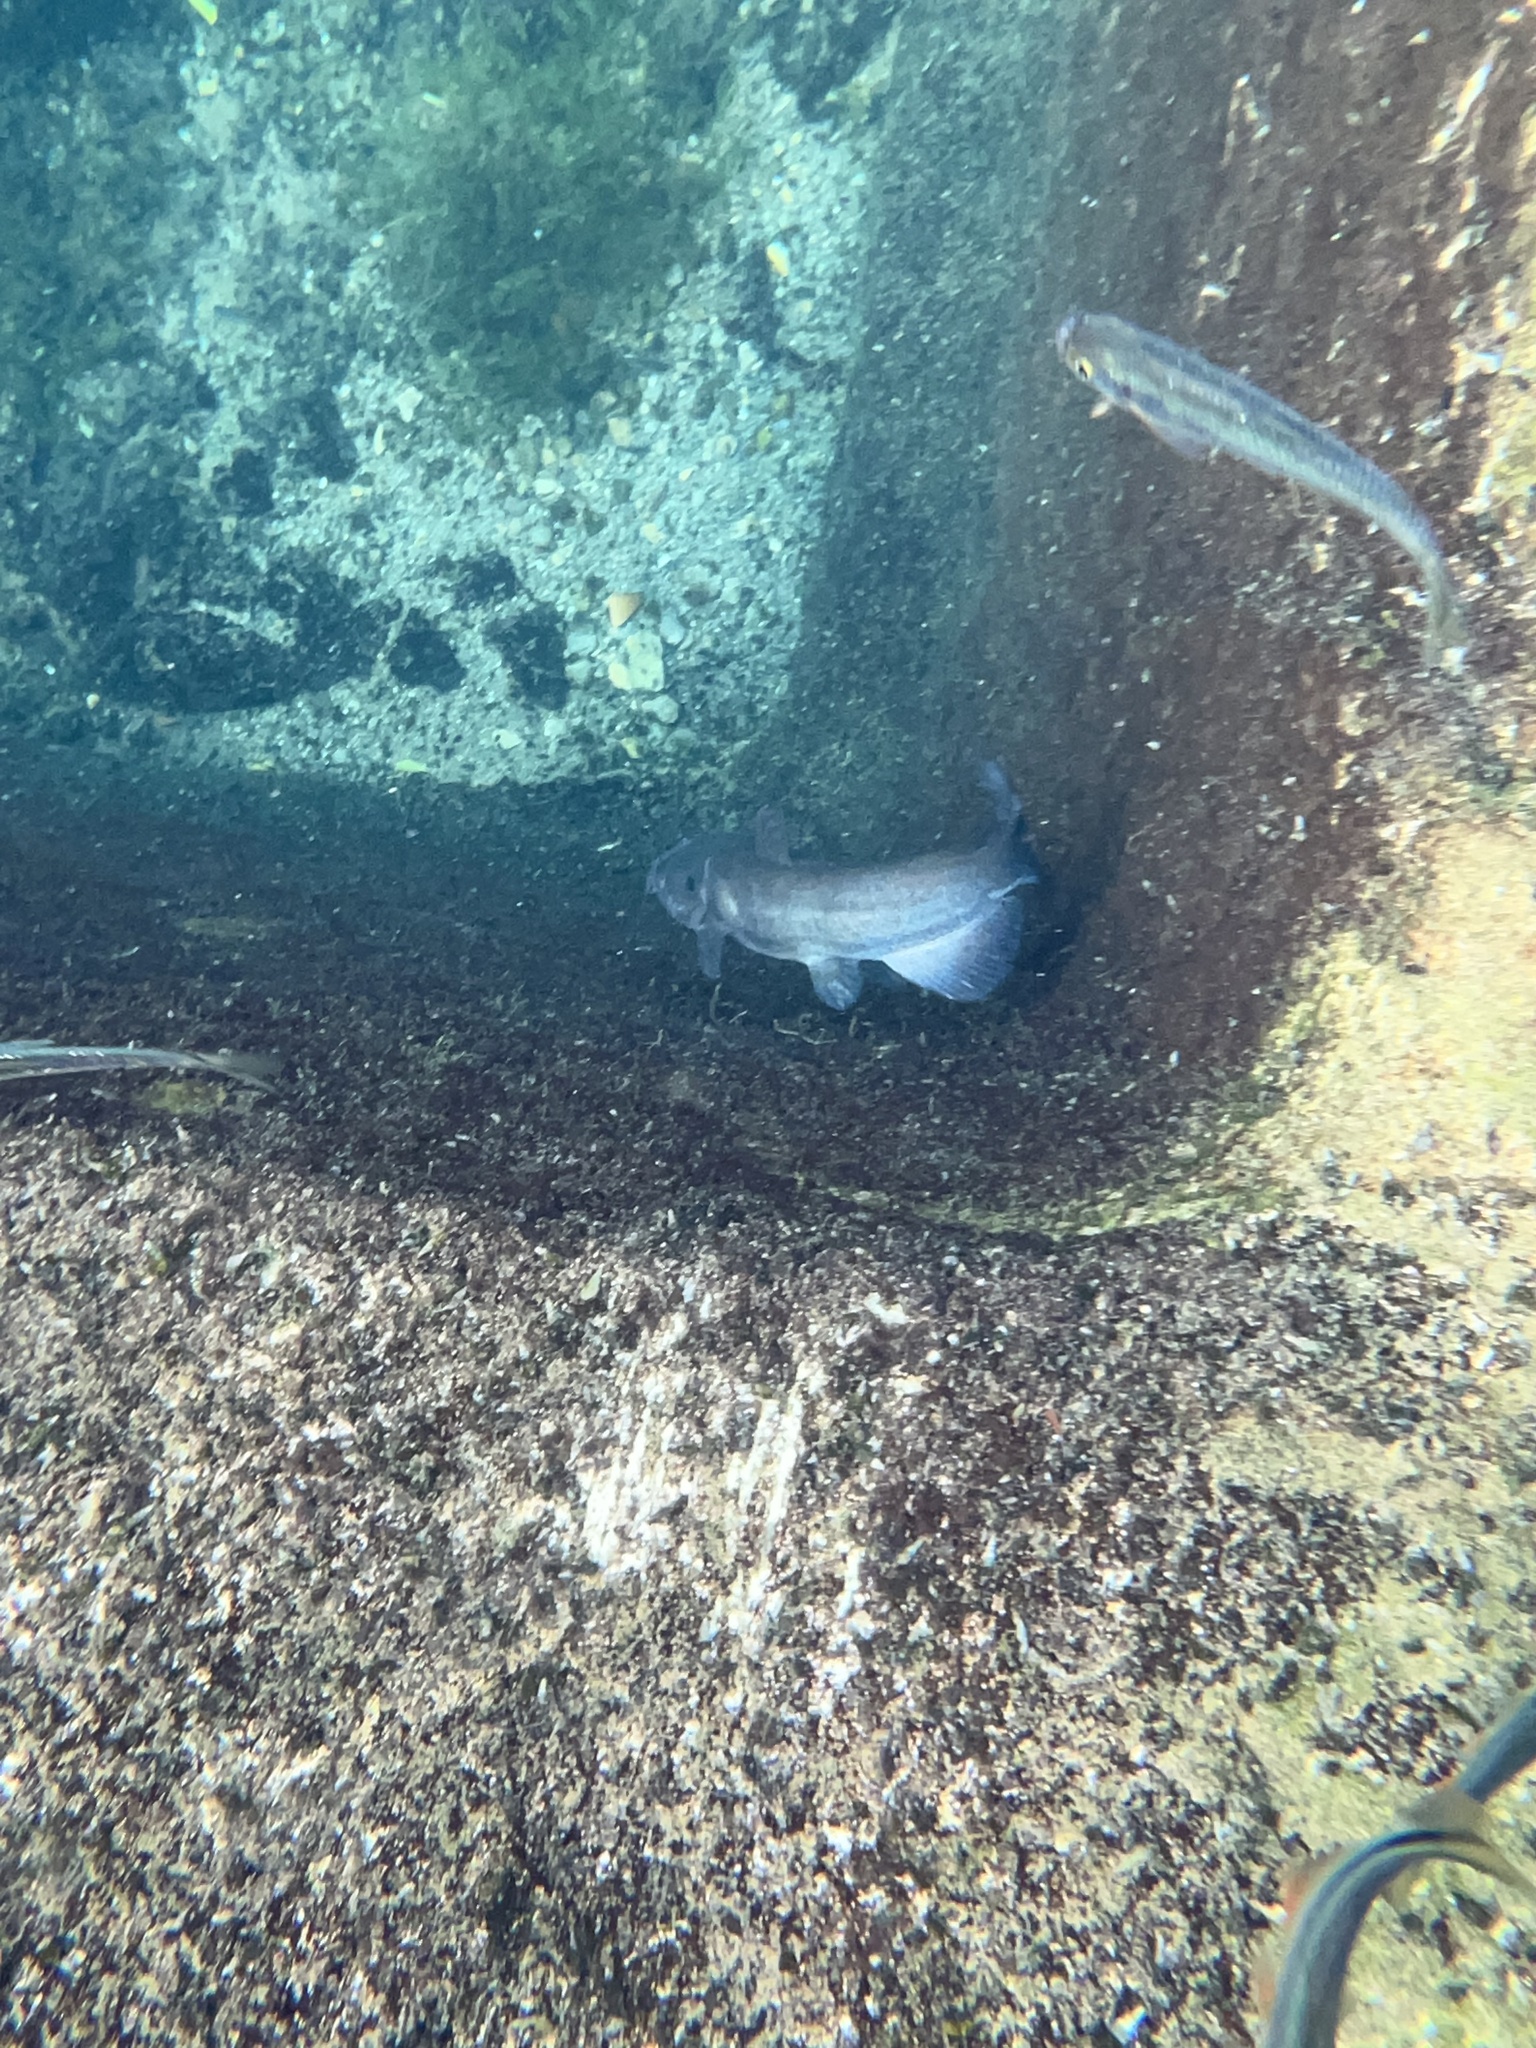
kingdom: Animalia
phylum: Chordata
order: Siluriformes
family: Ictaluridae
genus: Ictalurus
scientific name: Ictalurus lupus
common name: Headwater catfish
